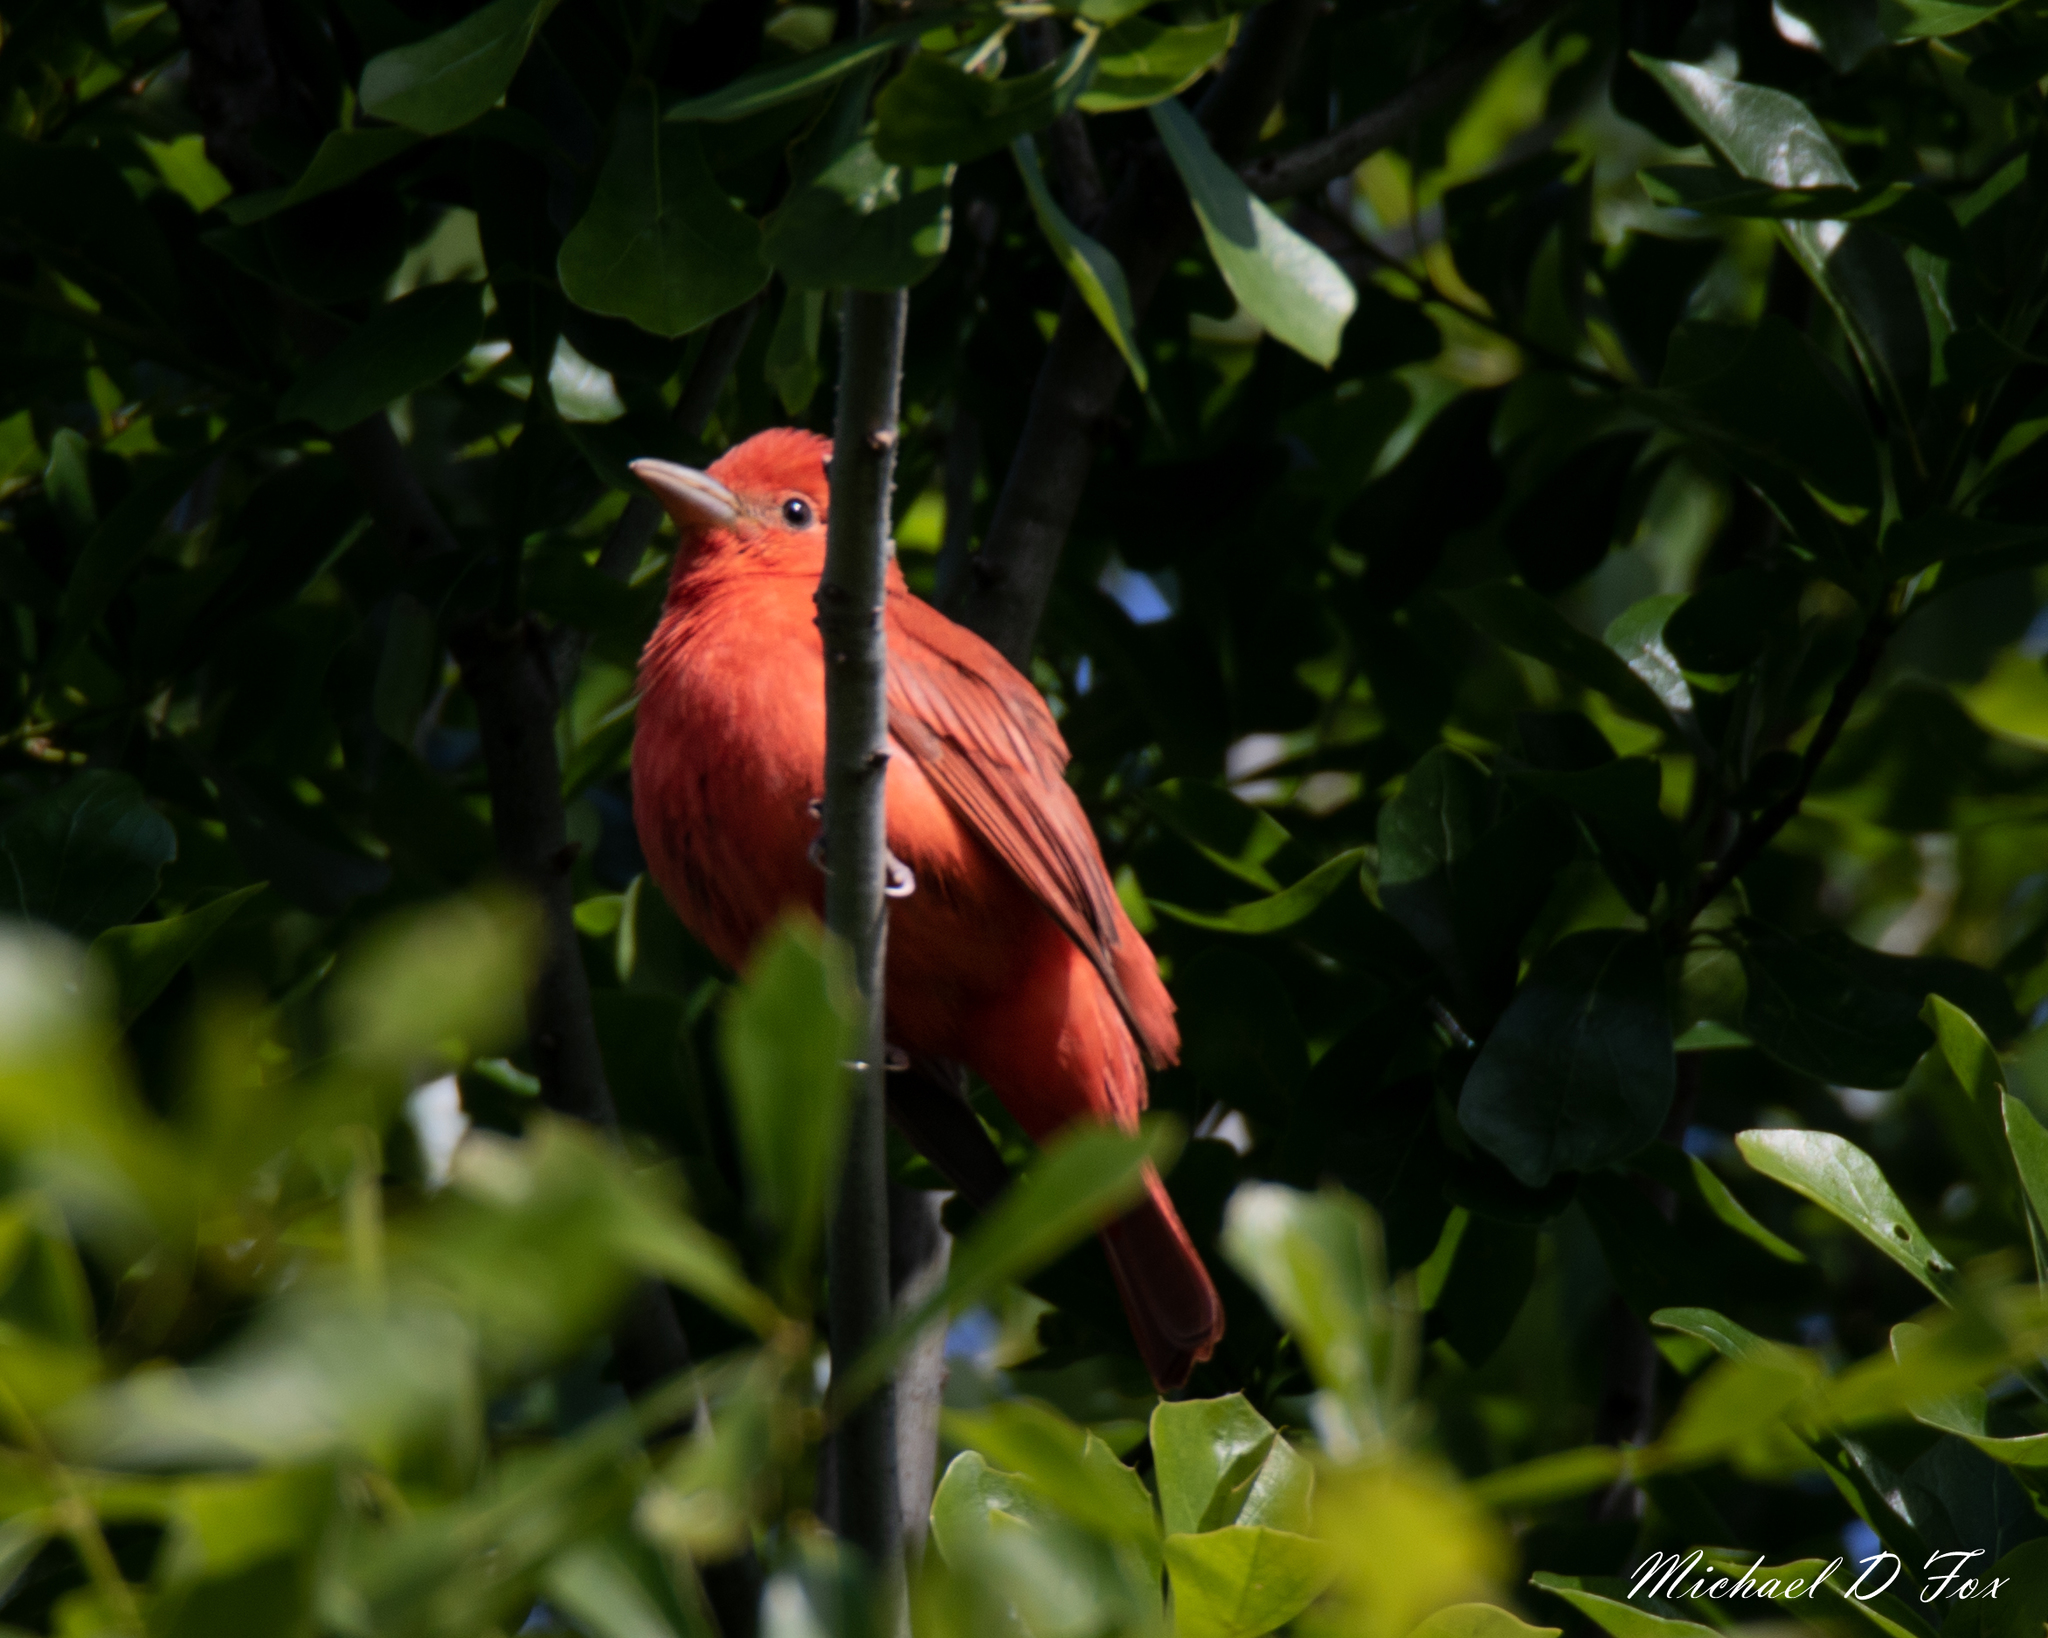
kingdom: Animalia
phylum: Chordata
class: Aves
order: Passeriformes
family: Cardinalidae
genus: Piranga
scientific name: Piranga rubra
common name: Summer tanager
